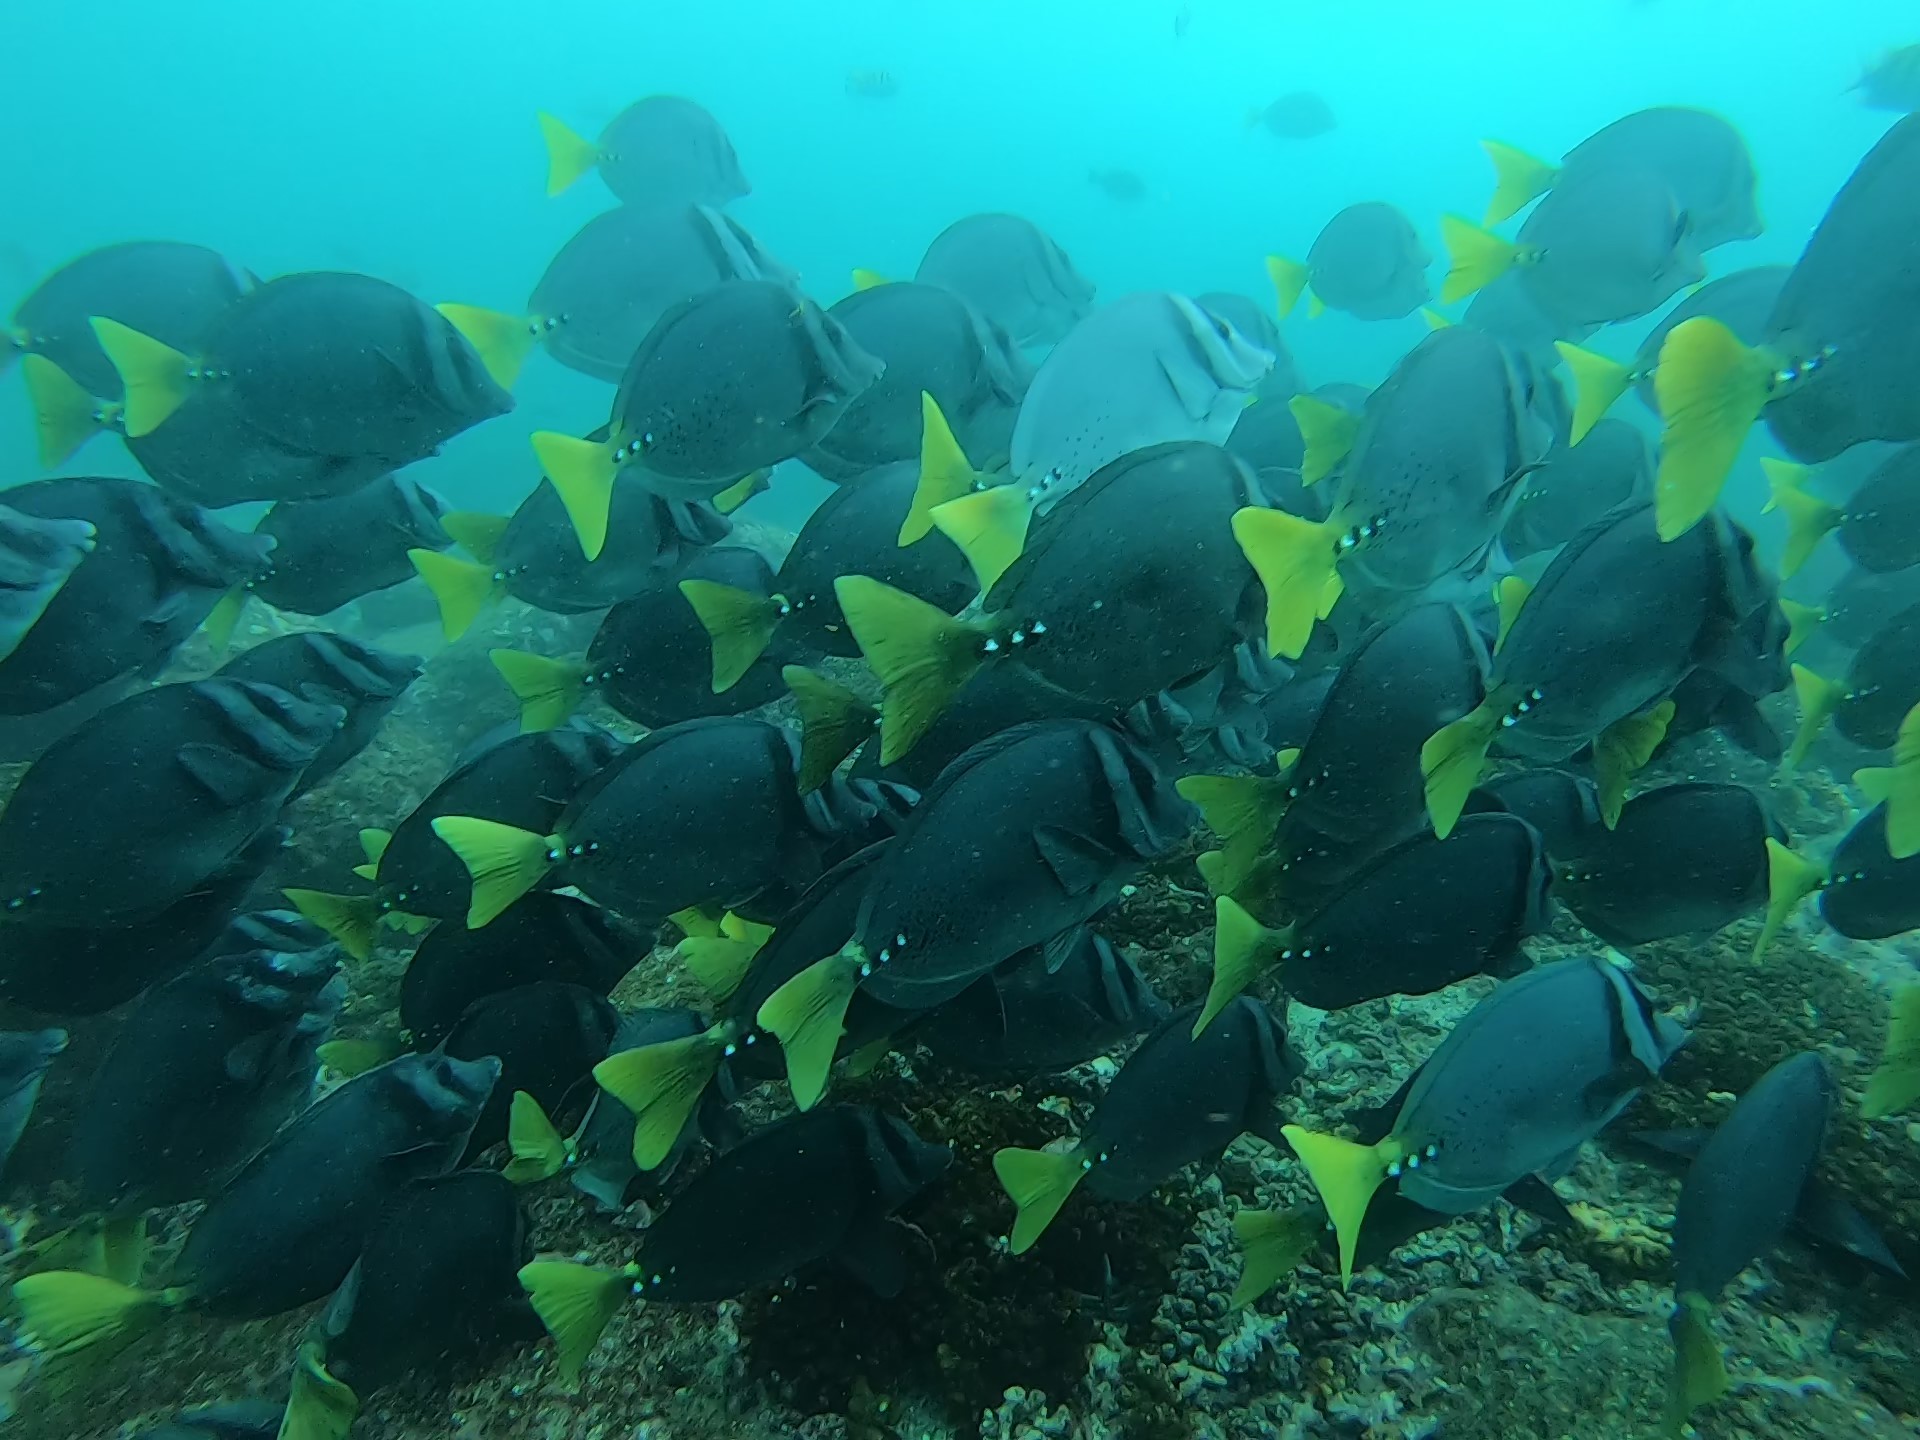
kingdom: Animalia
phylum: Chordata
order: Perciformes
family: Acanthuridae
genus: Prionurus
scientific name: Prionurus laticlavius
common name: Razor surgeonfish
